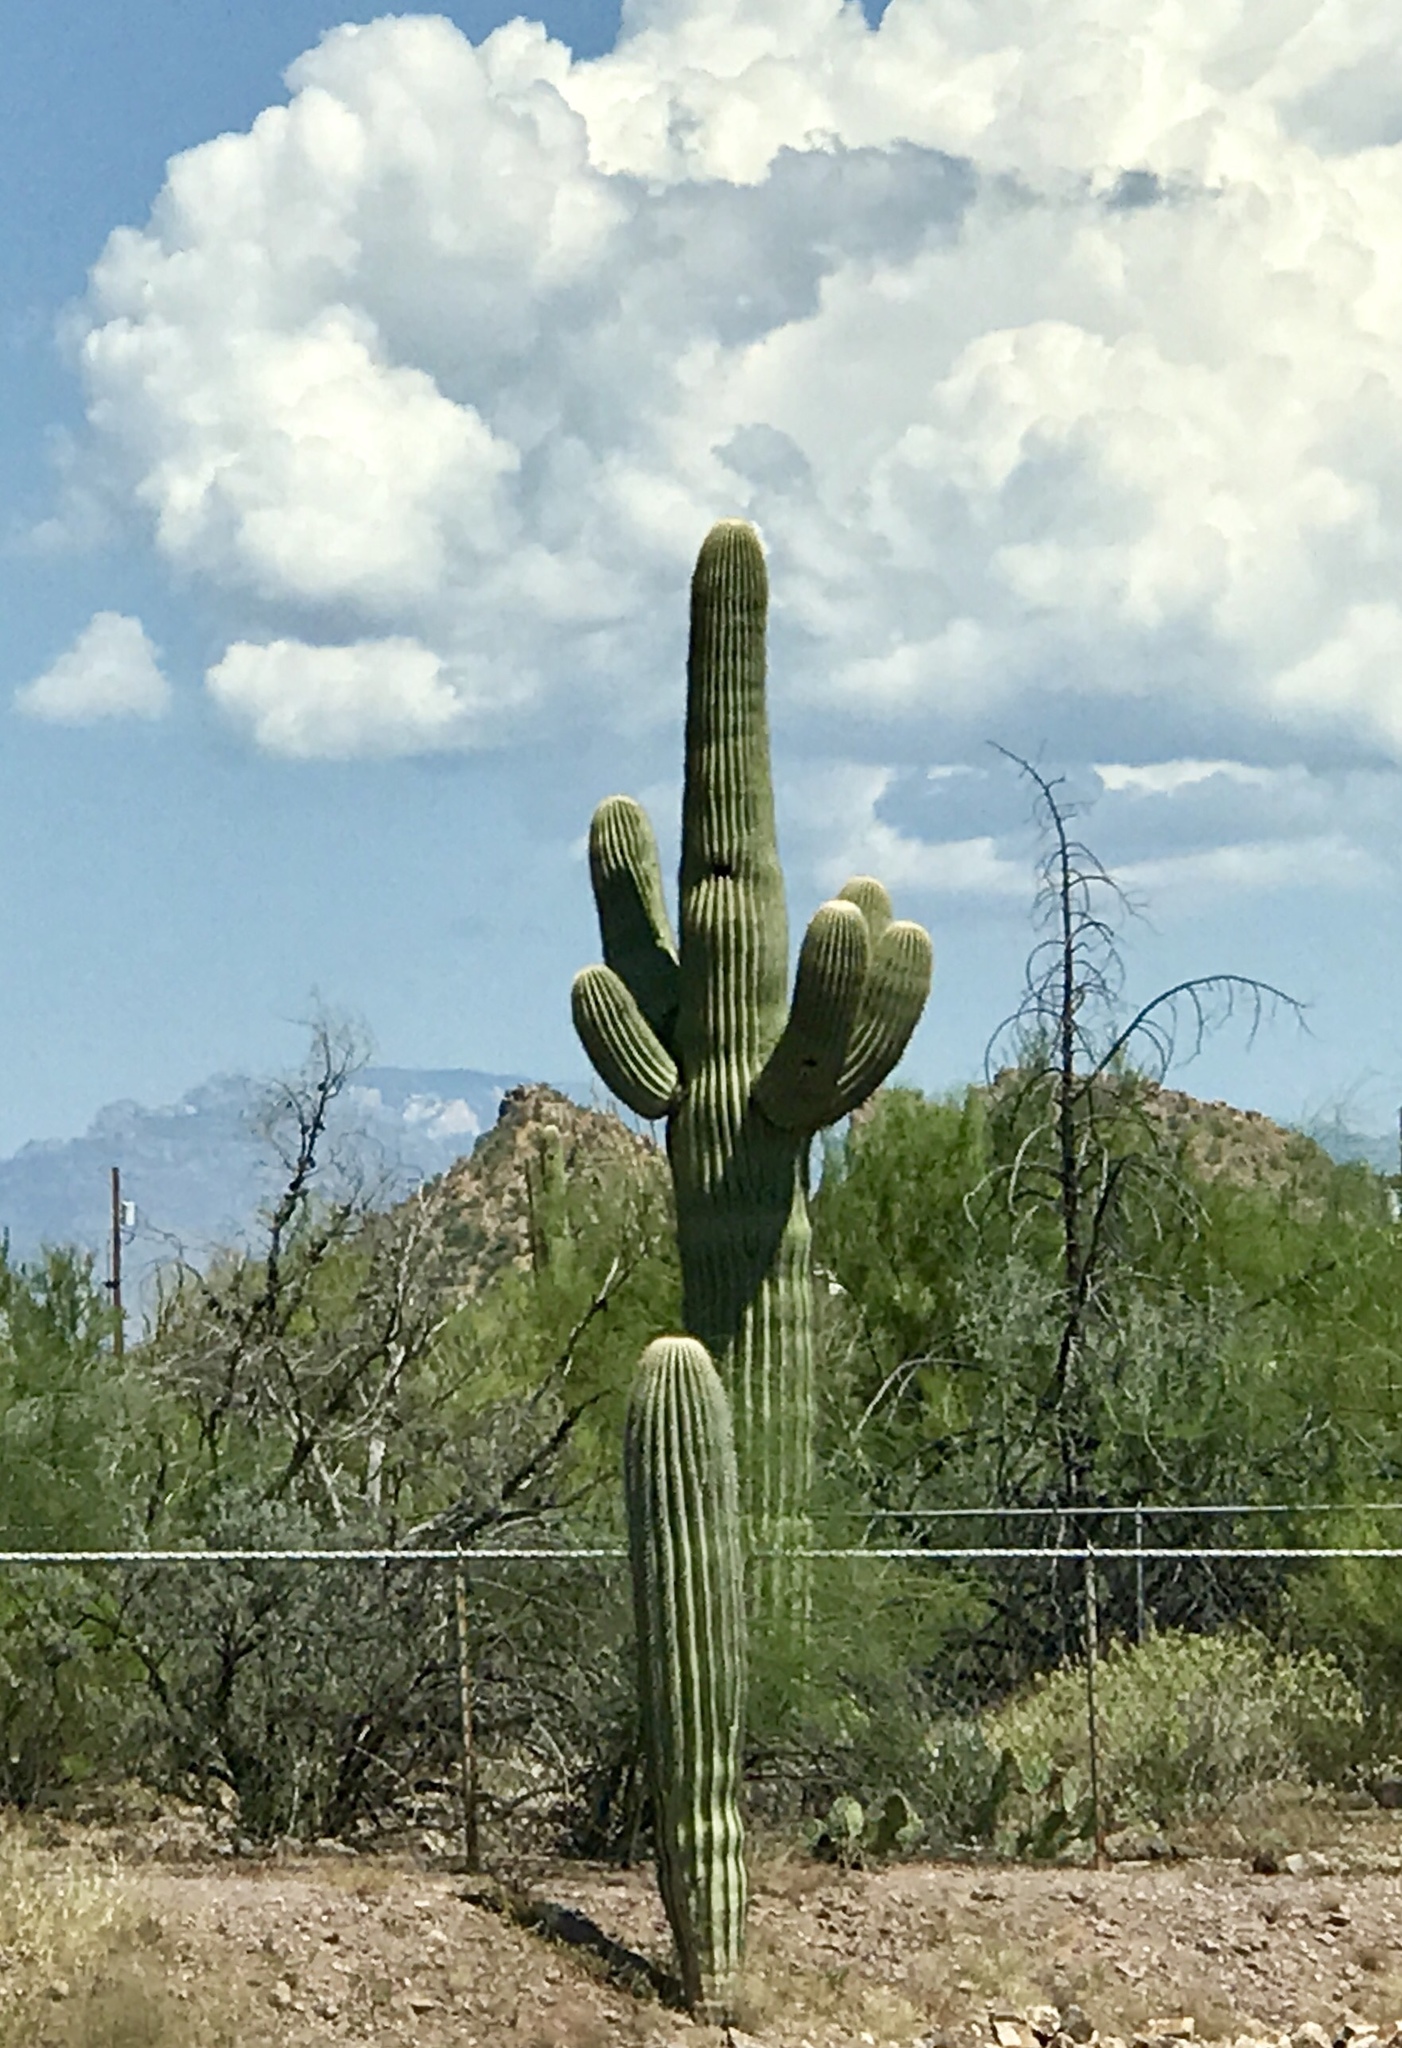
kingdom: Plantae
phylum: Tracheophyta
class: Magnoliopsida
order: Caryophyllales
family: Cactaceae
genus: Carnegiea
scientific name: Carnegiea gigantea
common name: Saguaro
